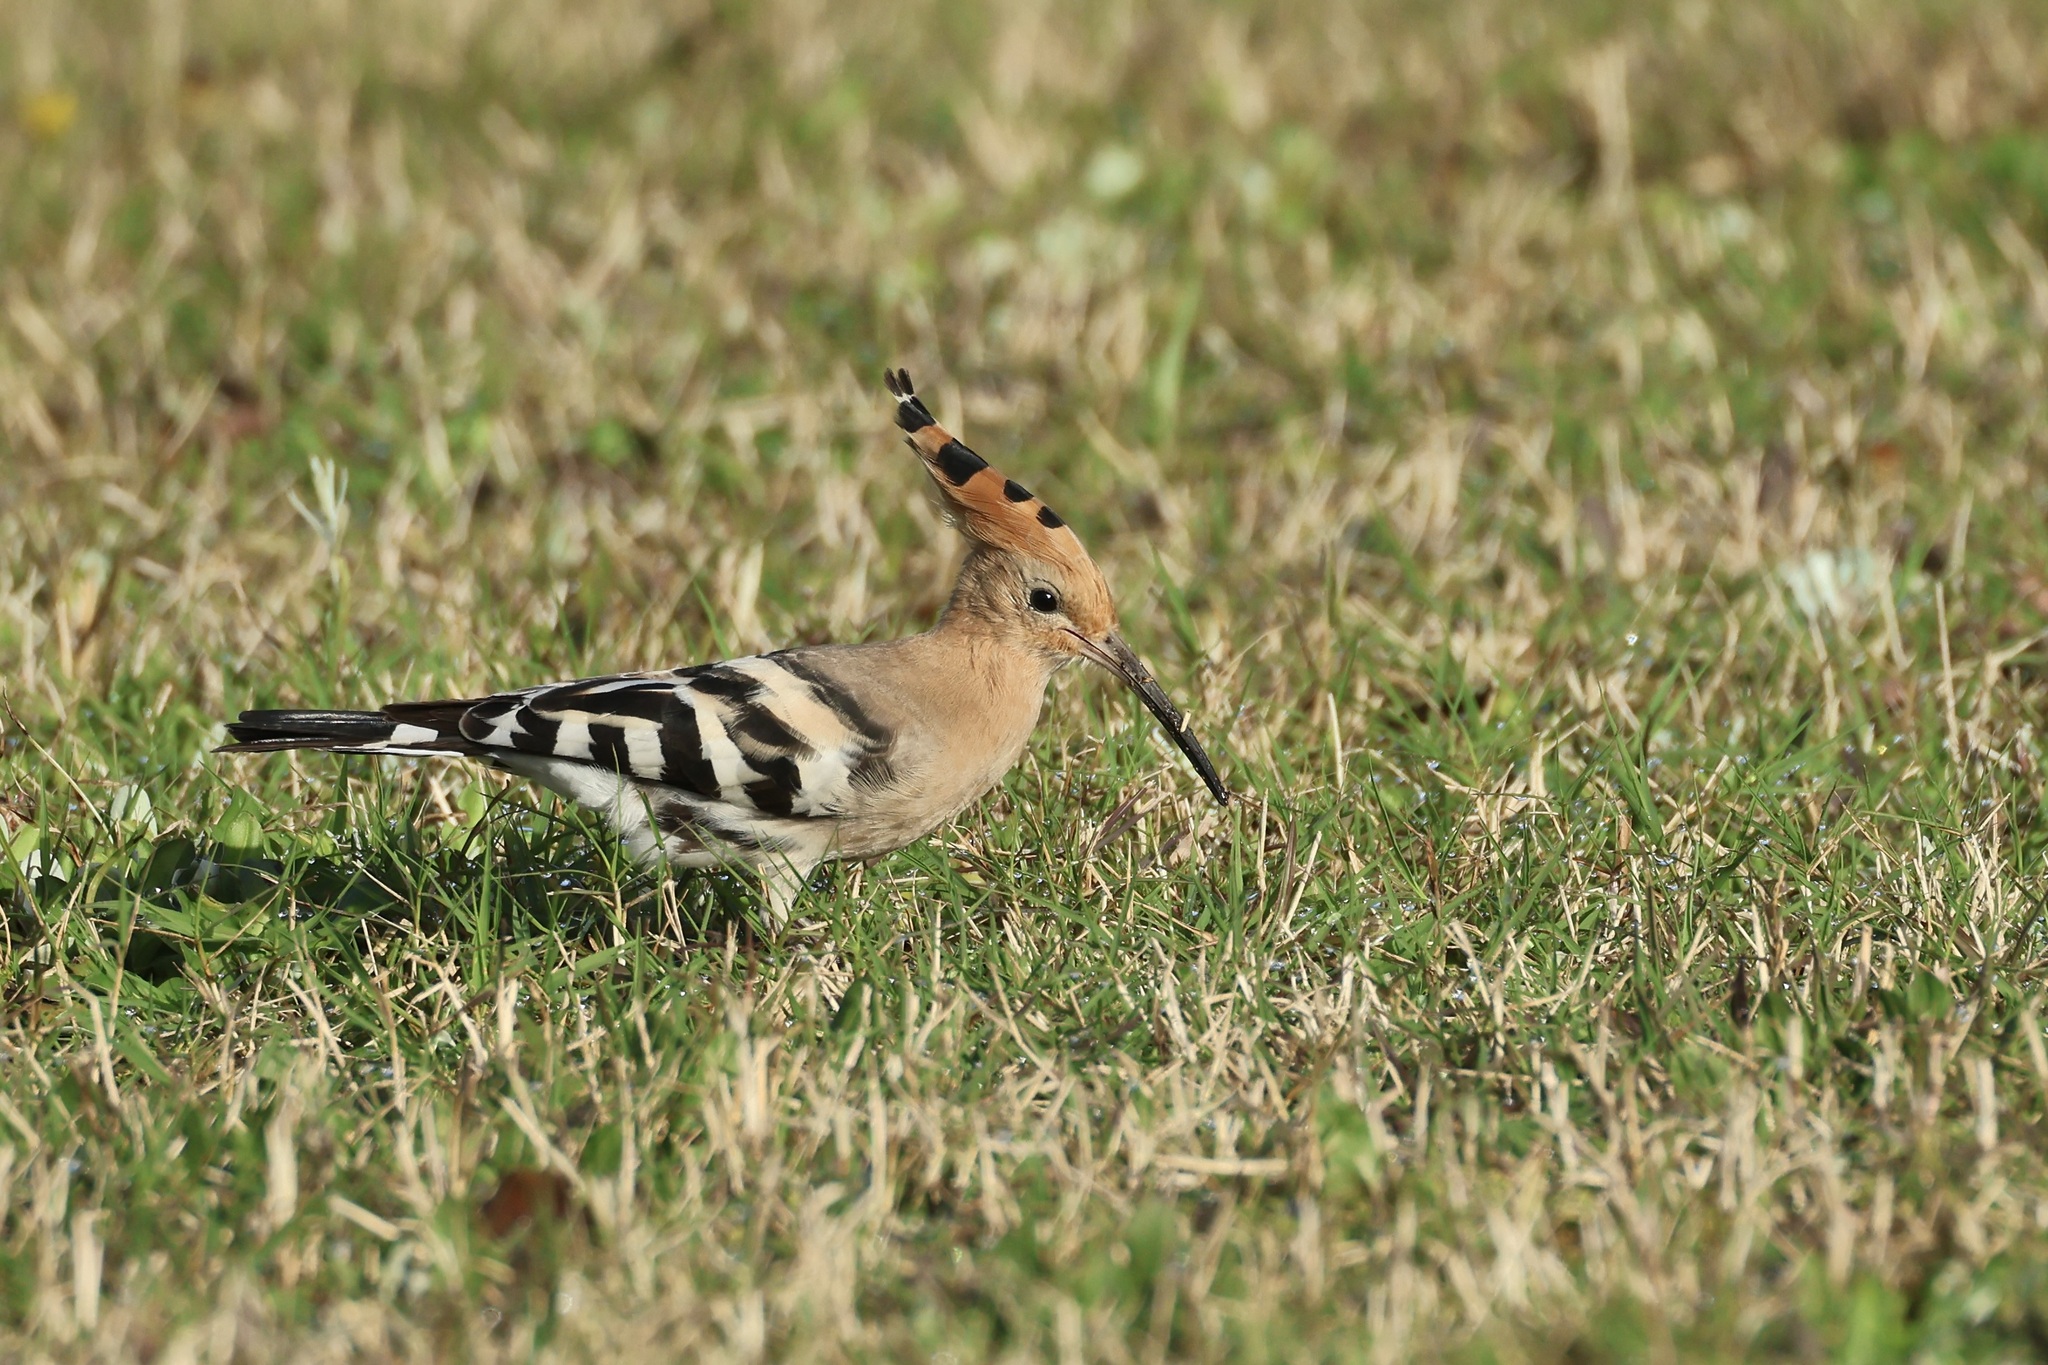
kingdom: Animalia
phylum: Chordata
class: Aves
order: Bucerotiformes
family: Upupidae
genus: Upupa
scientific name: Upupa epops
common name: Eurasian hoopoe
